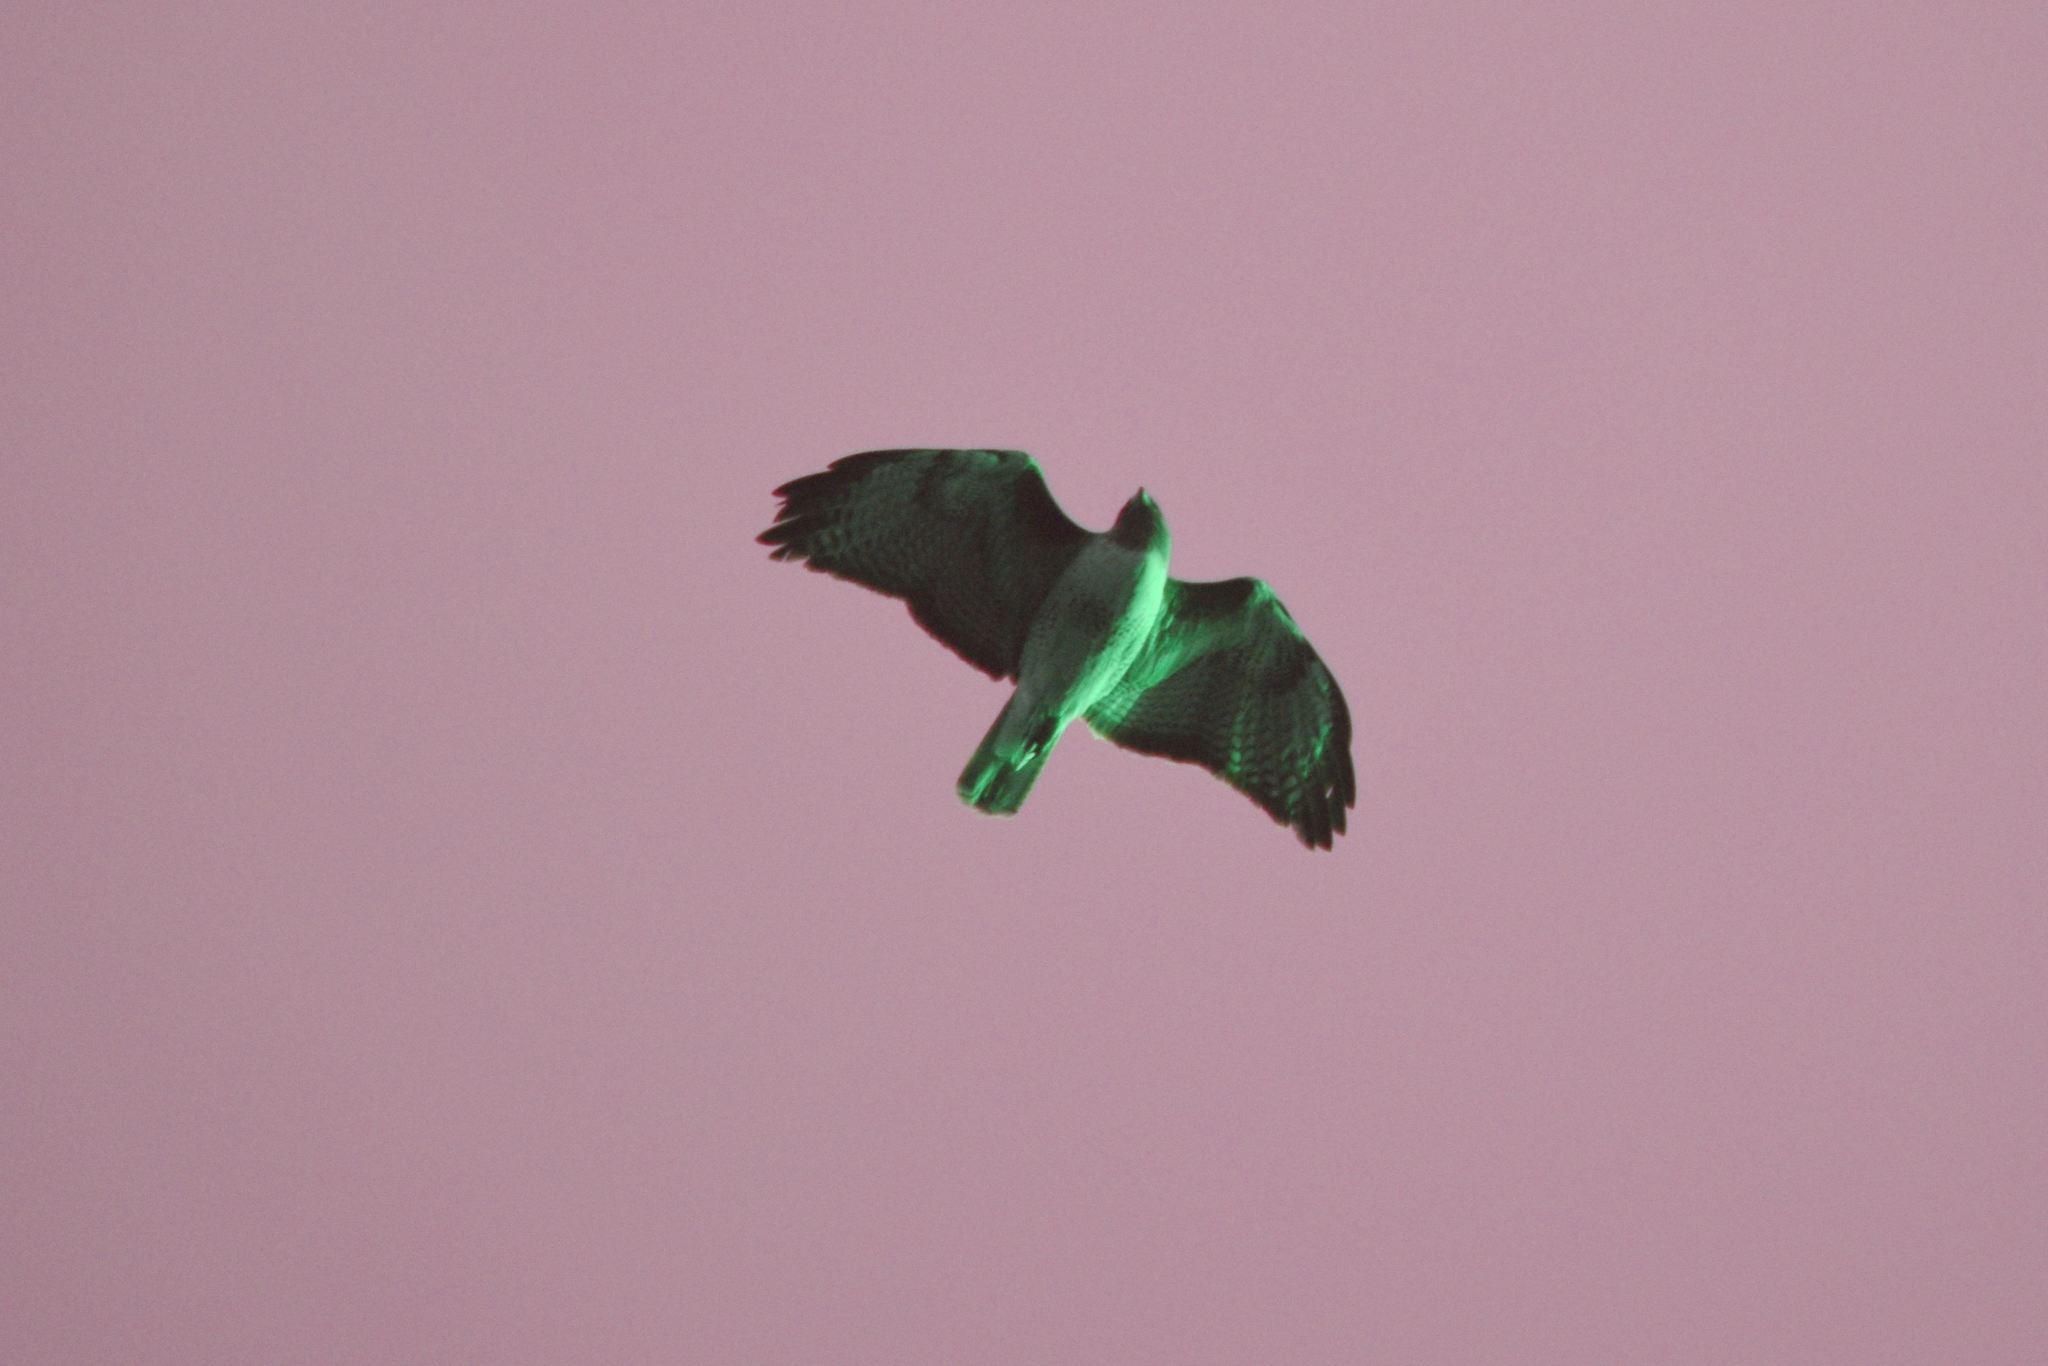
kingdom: Animalia
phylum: Chordata
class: Aves
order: Accipitriformes
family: Accipitridae
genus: Buteo
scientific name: Buteo jamaicensis
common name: Red-tailed hawk
